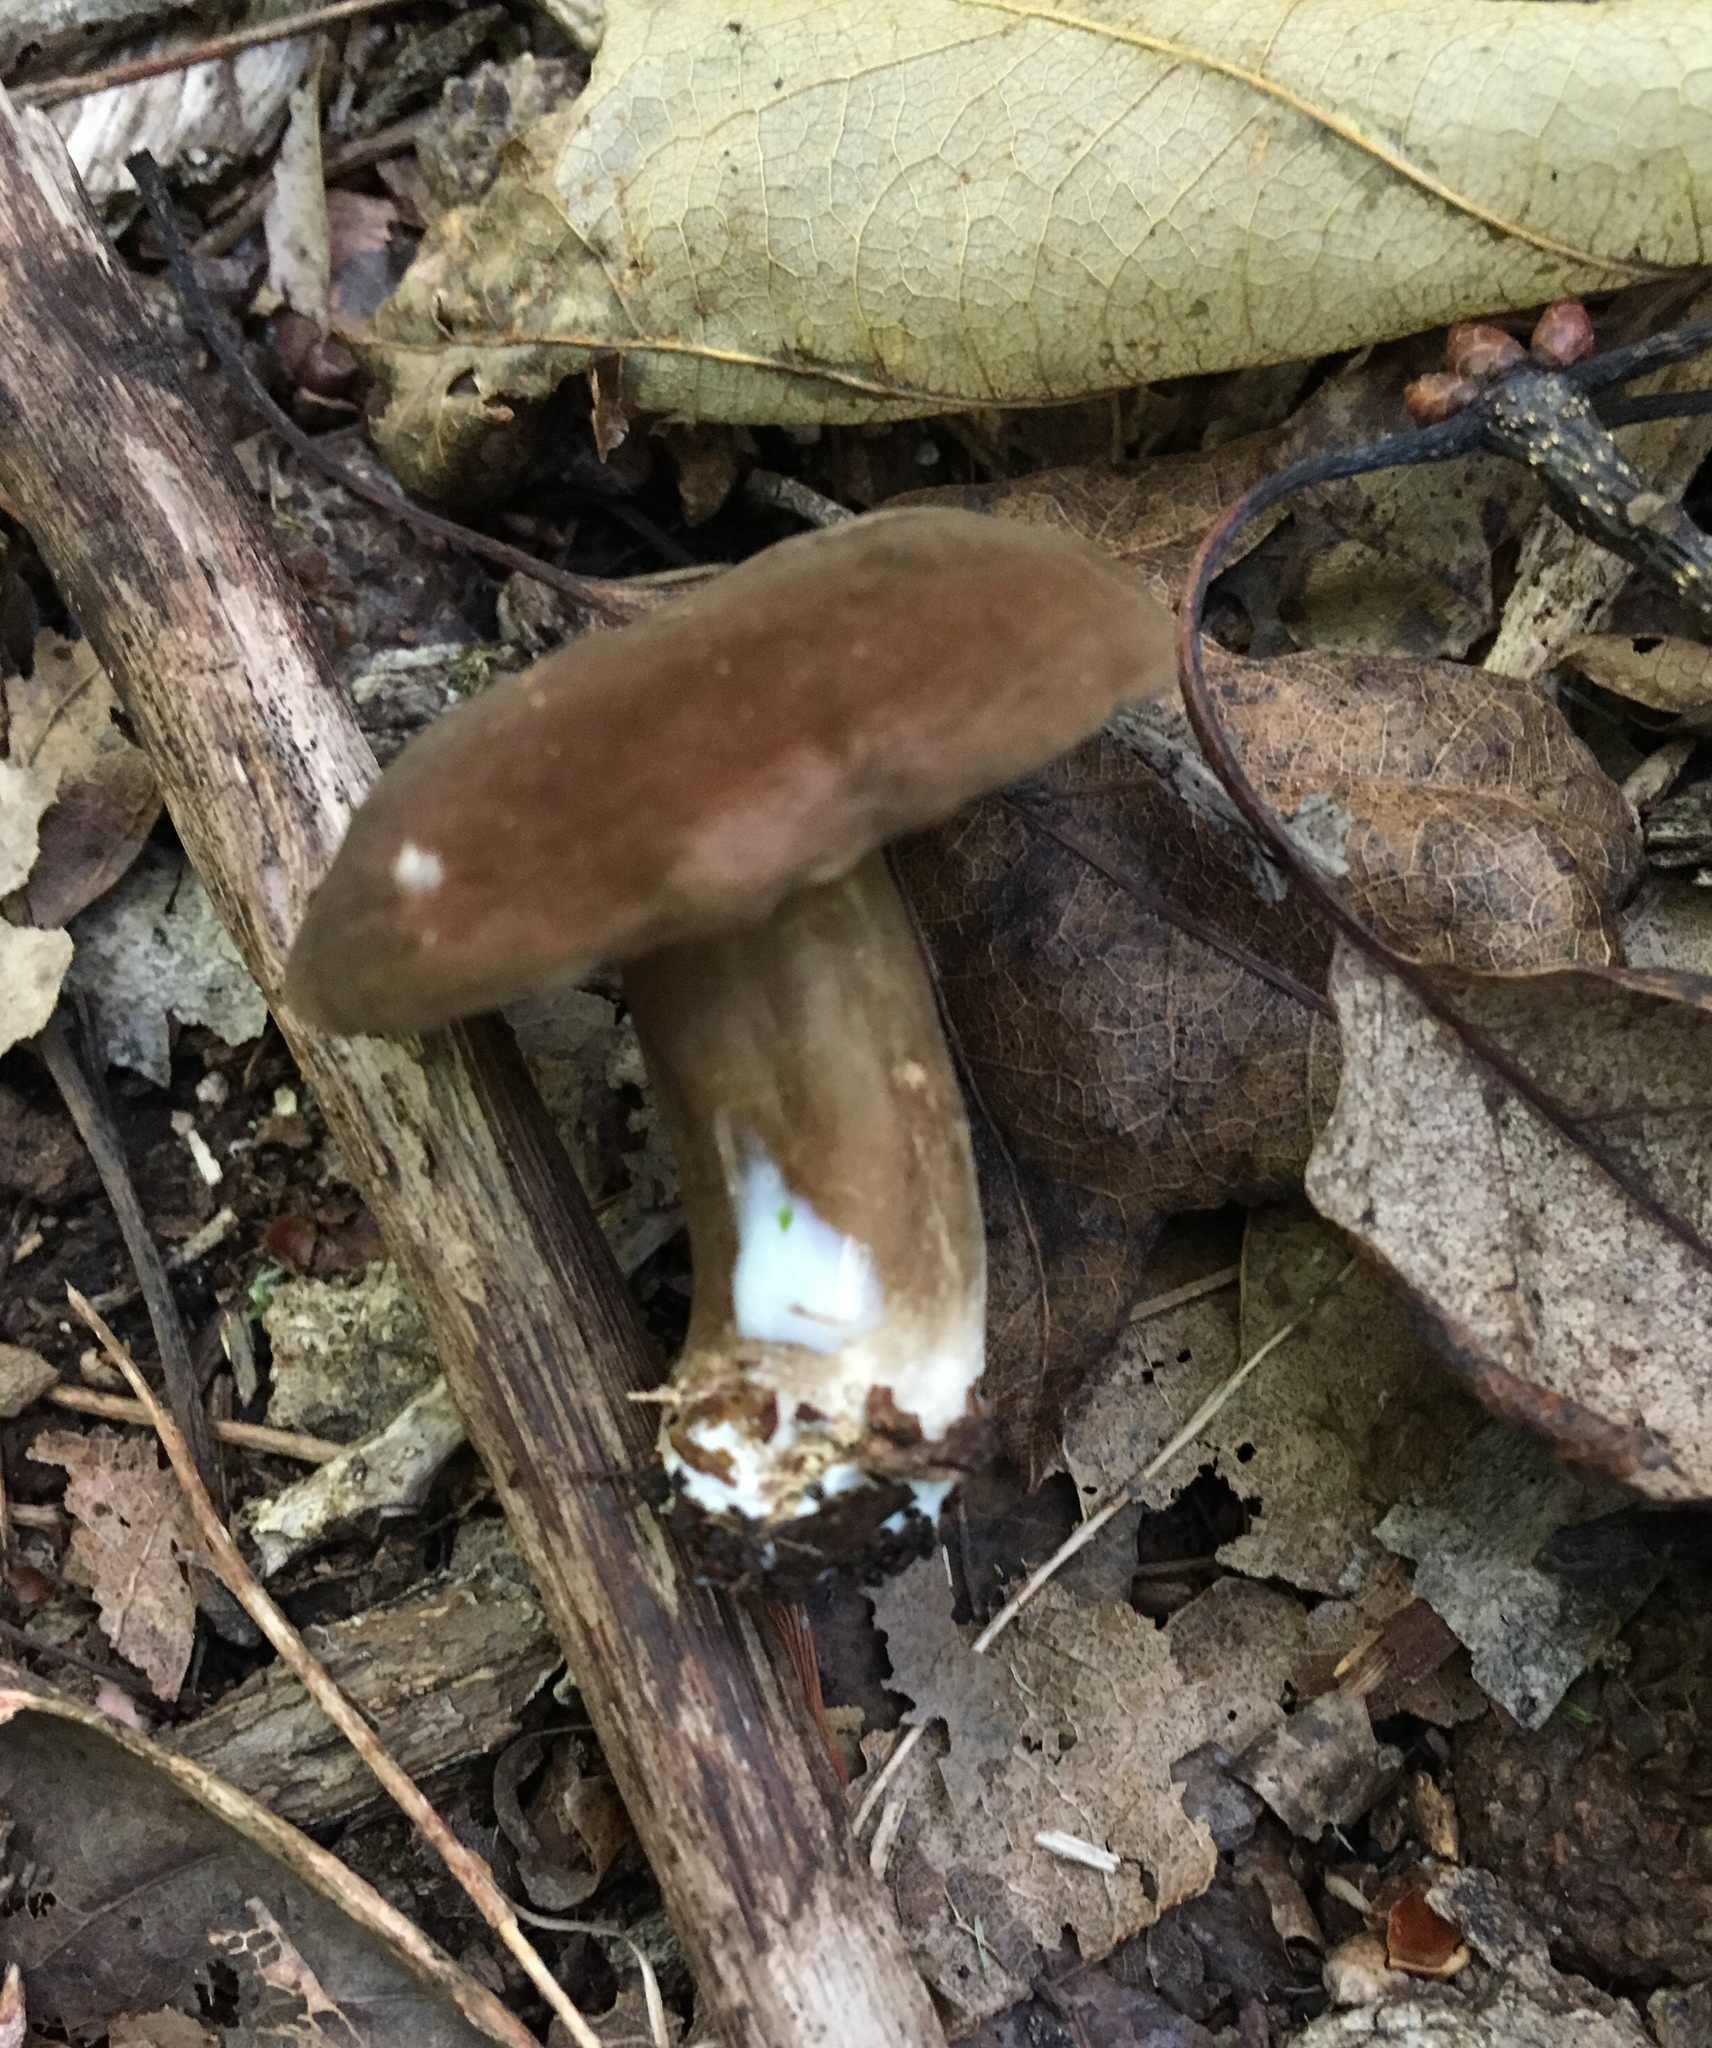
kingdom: Fungi
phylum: Basidiomycota
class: Agaricomycetes
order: Russulales
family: Russulaceae
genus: Lactarius
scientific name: Lactarius fuliginosus
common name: Sooty milkcap
